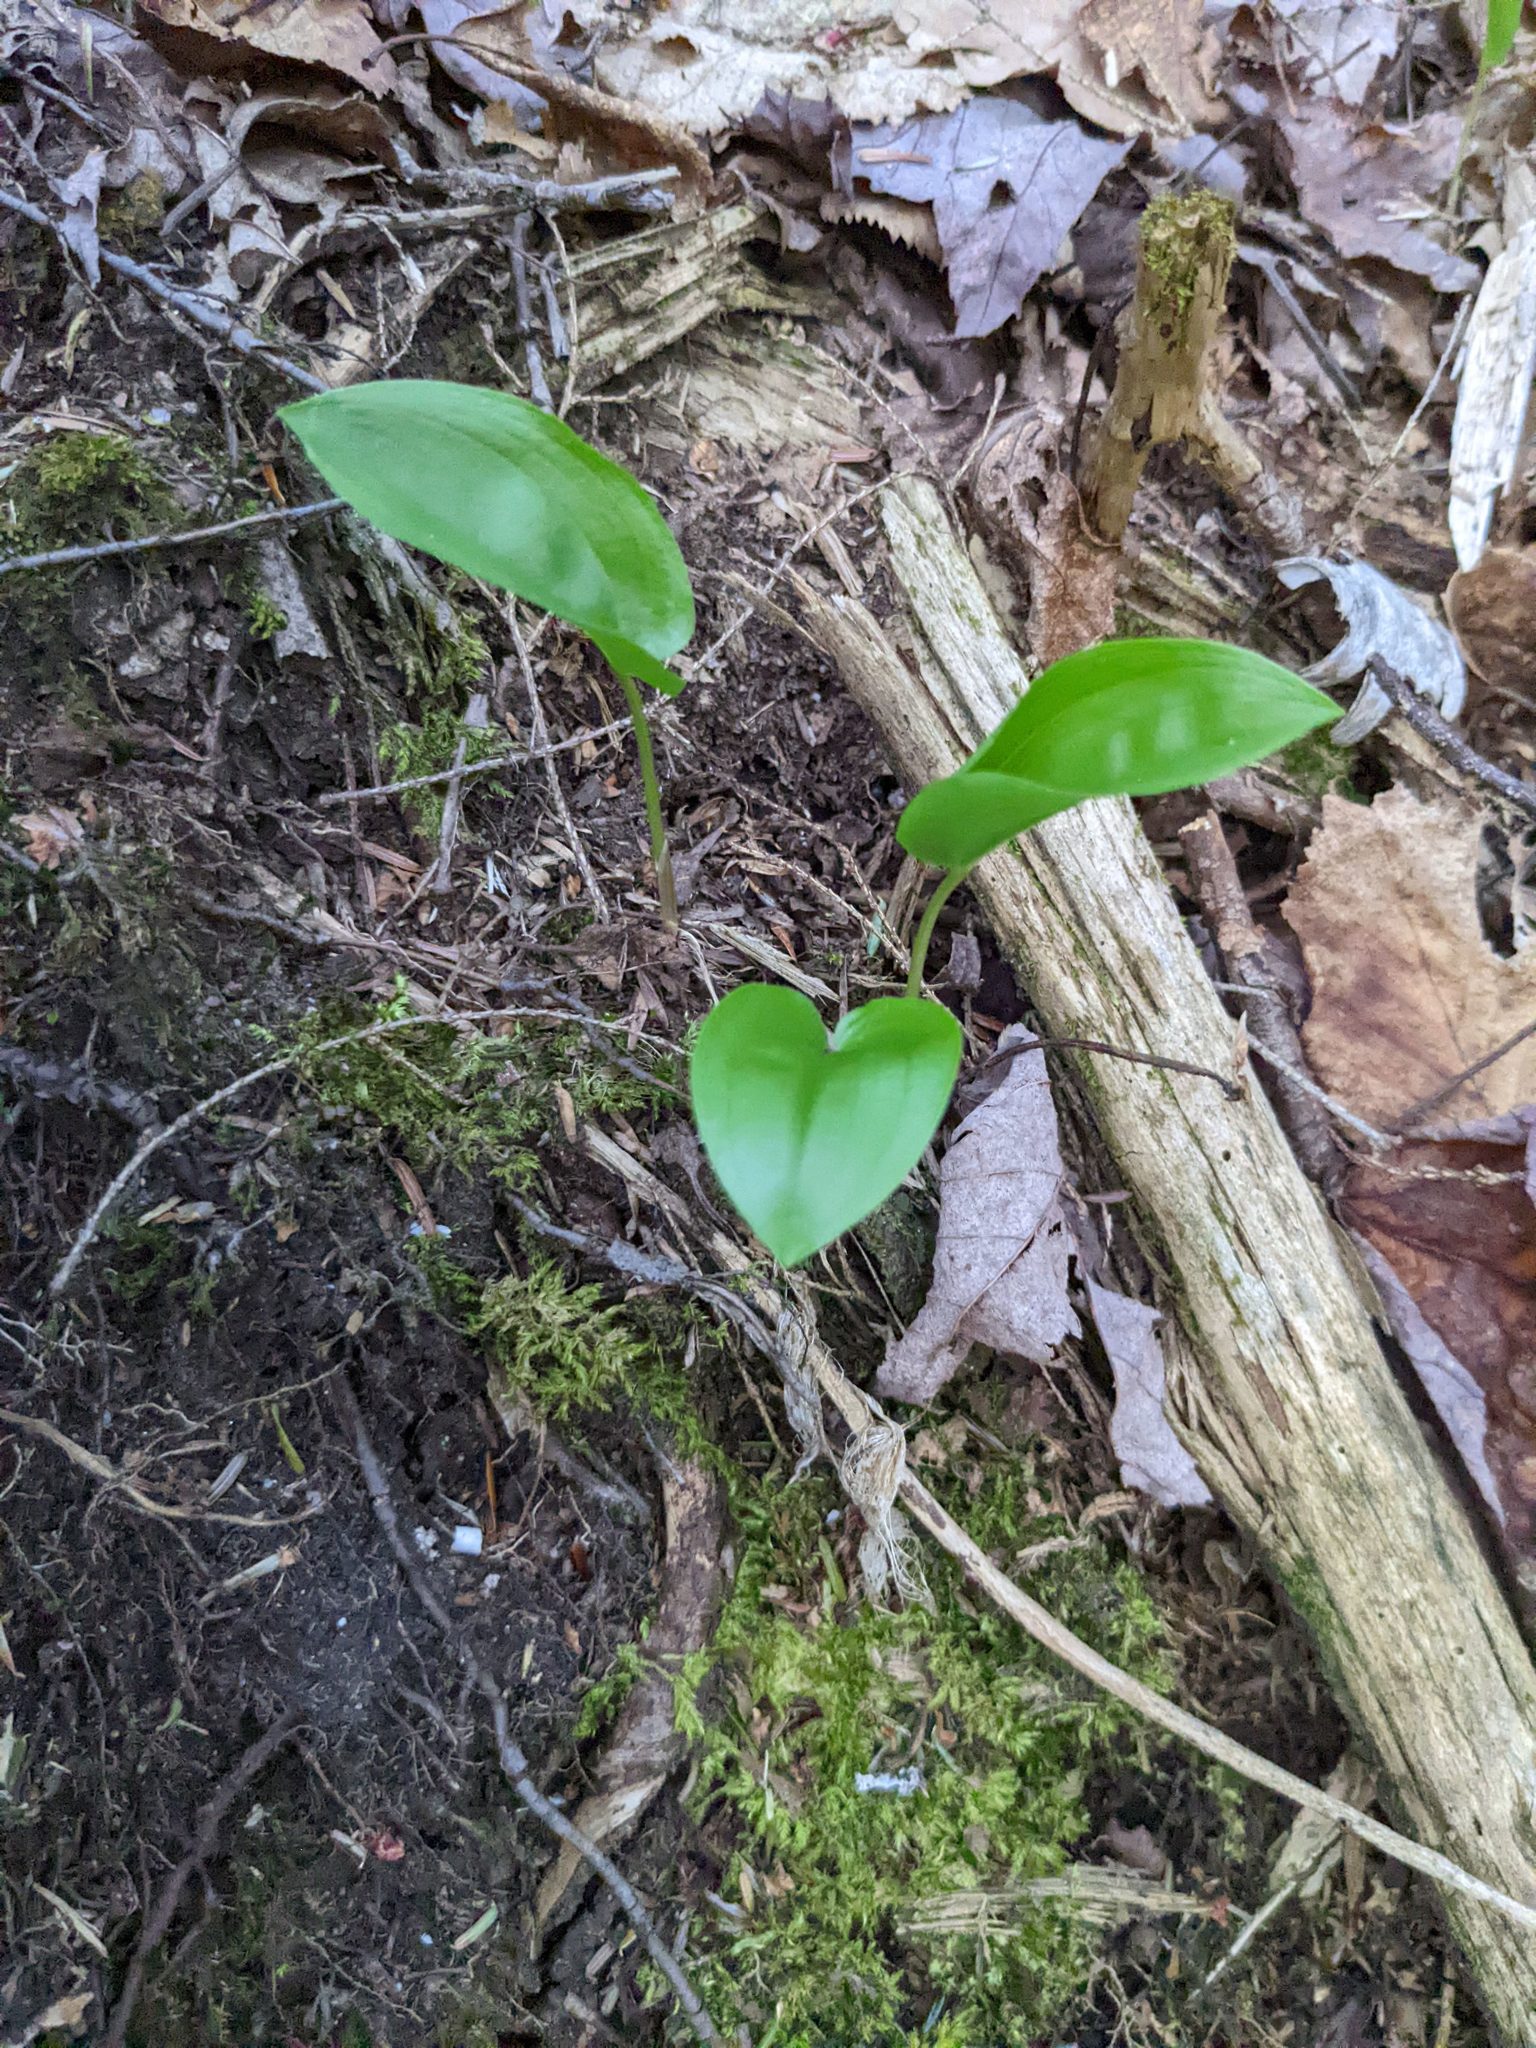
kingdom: Plantae
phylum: Tracheophyta
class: Liliopsida
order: Asparagales
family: Asparagaceae
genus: Maianthemum
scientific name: Maianthemum canadense
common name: False lily-of-the-valley
